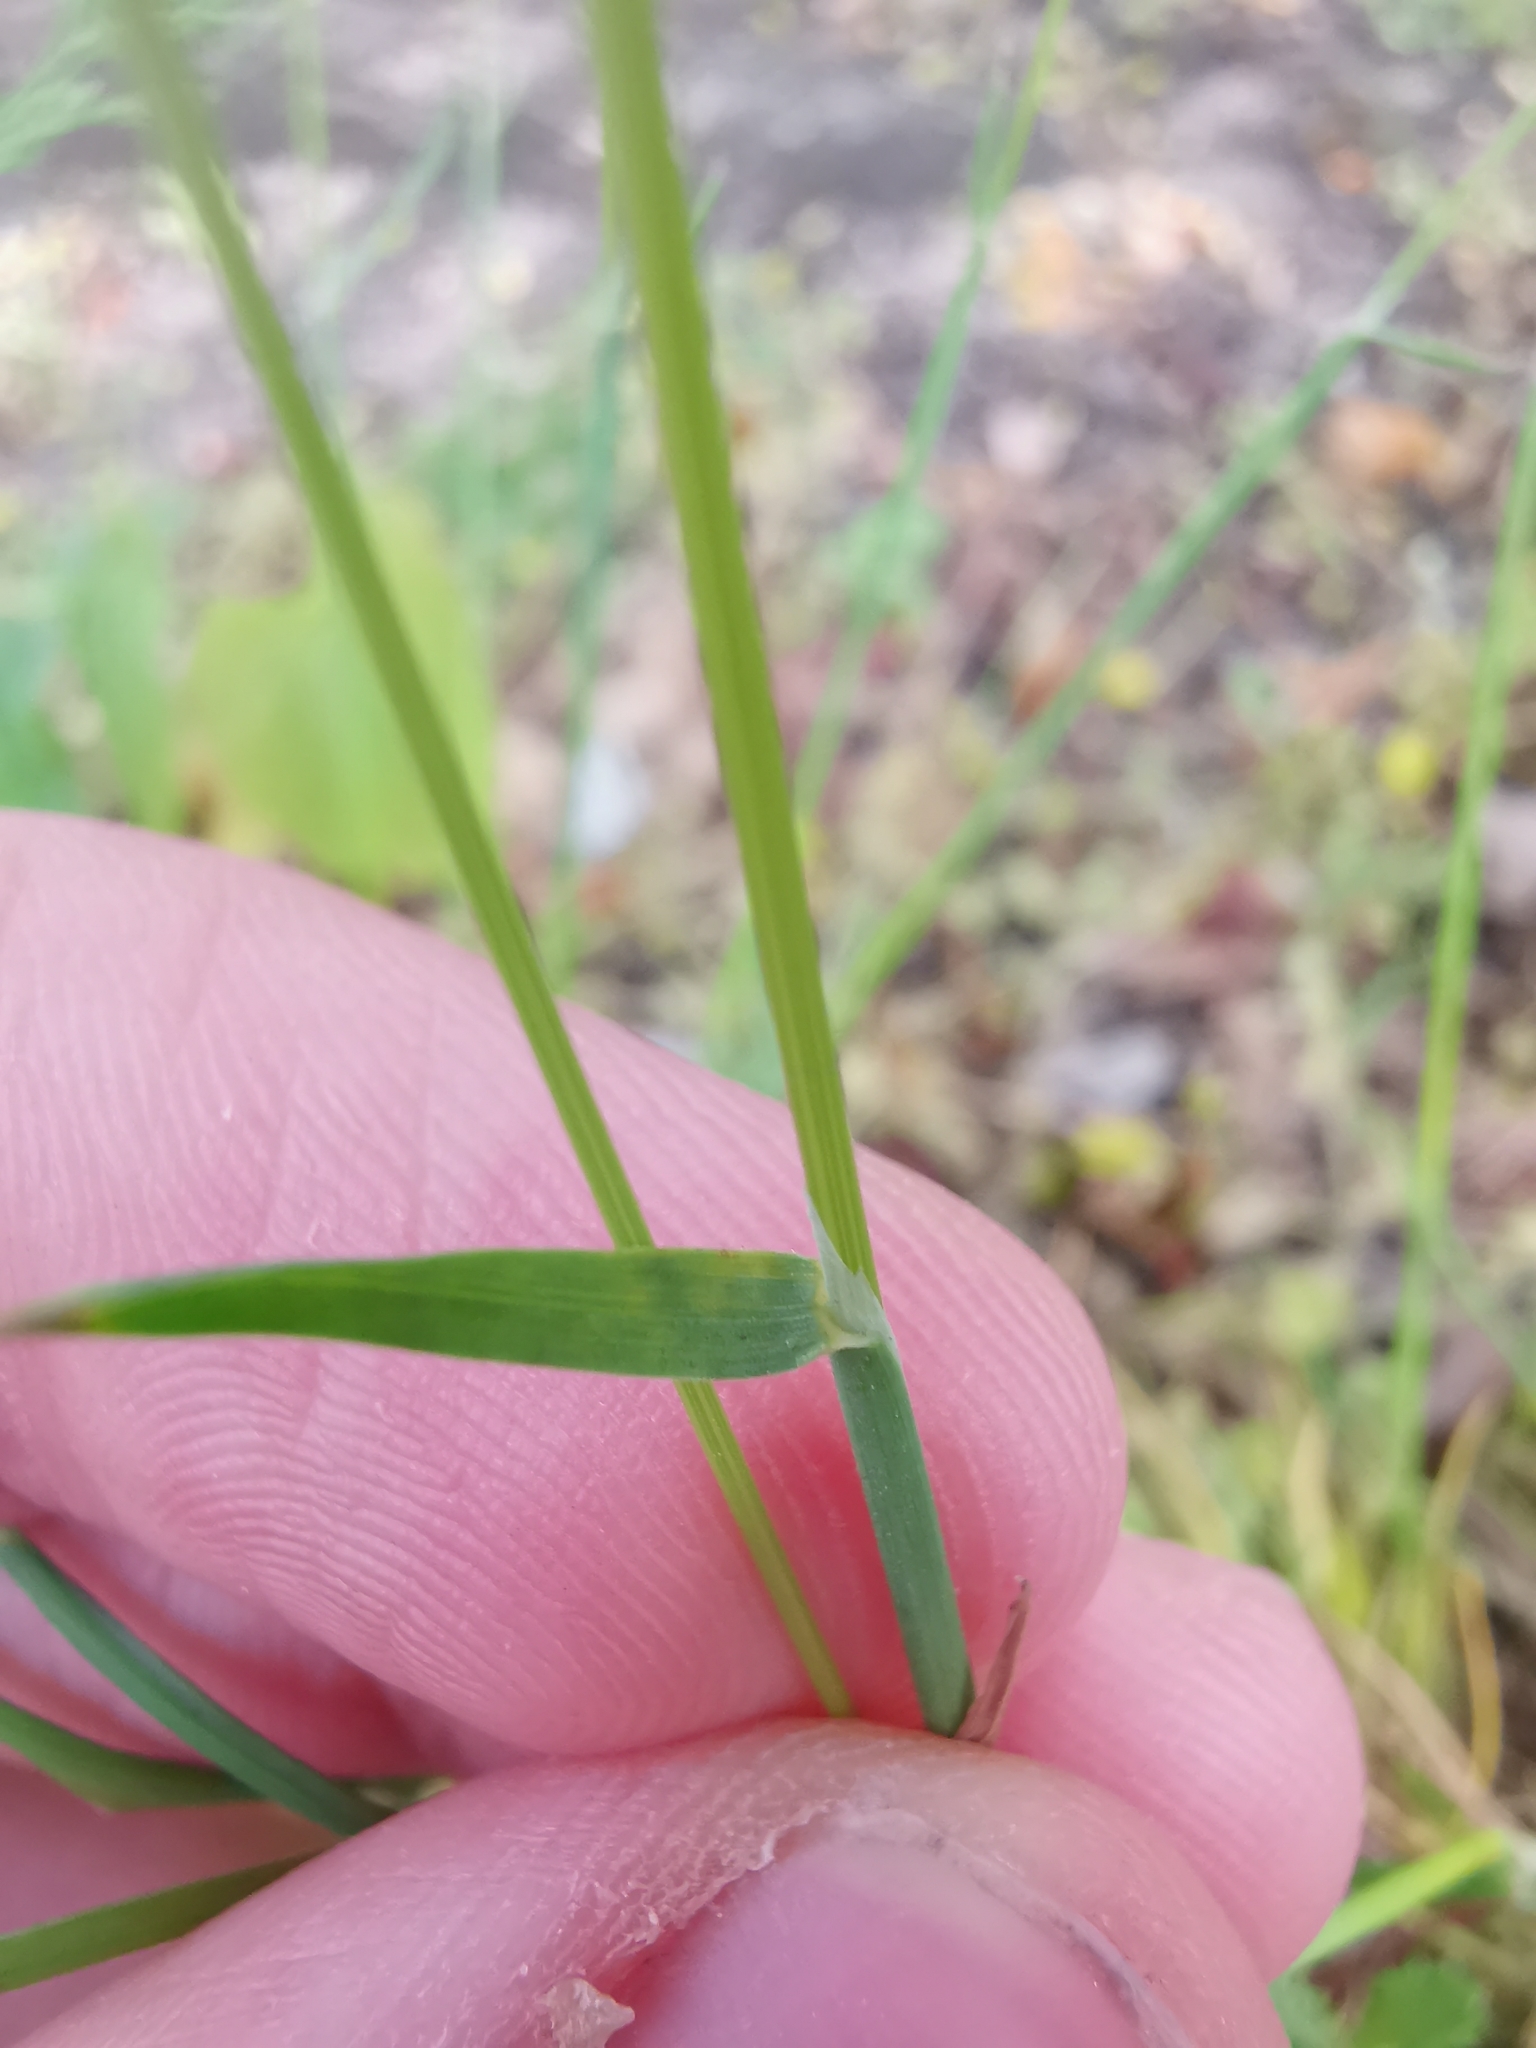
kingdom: Plantae
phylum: Tracheophyta
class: Liliopsida
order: Poales
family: Poaceae
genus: Poa
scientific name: Poa bulbosa
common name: Bulbous bluegrass
